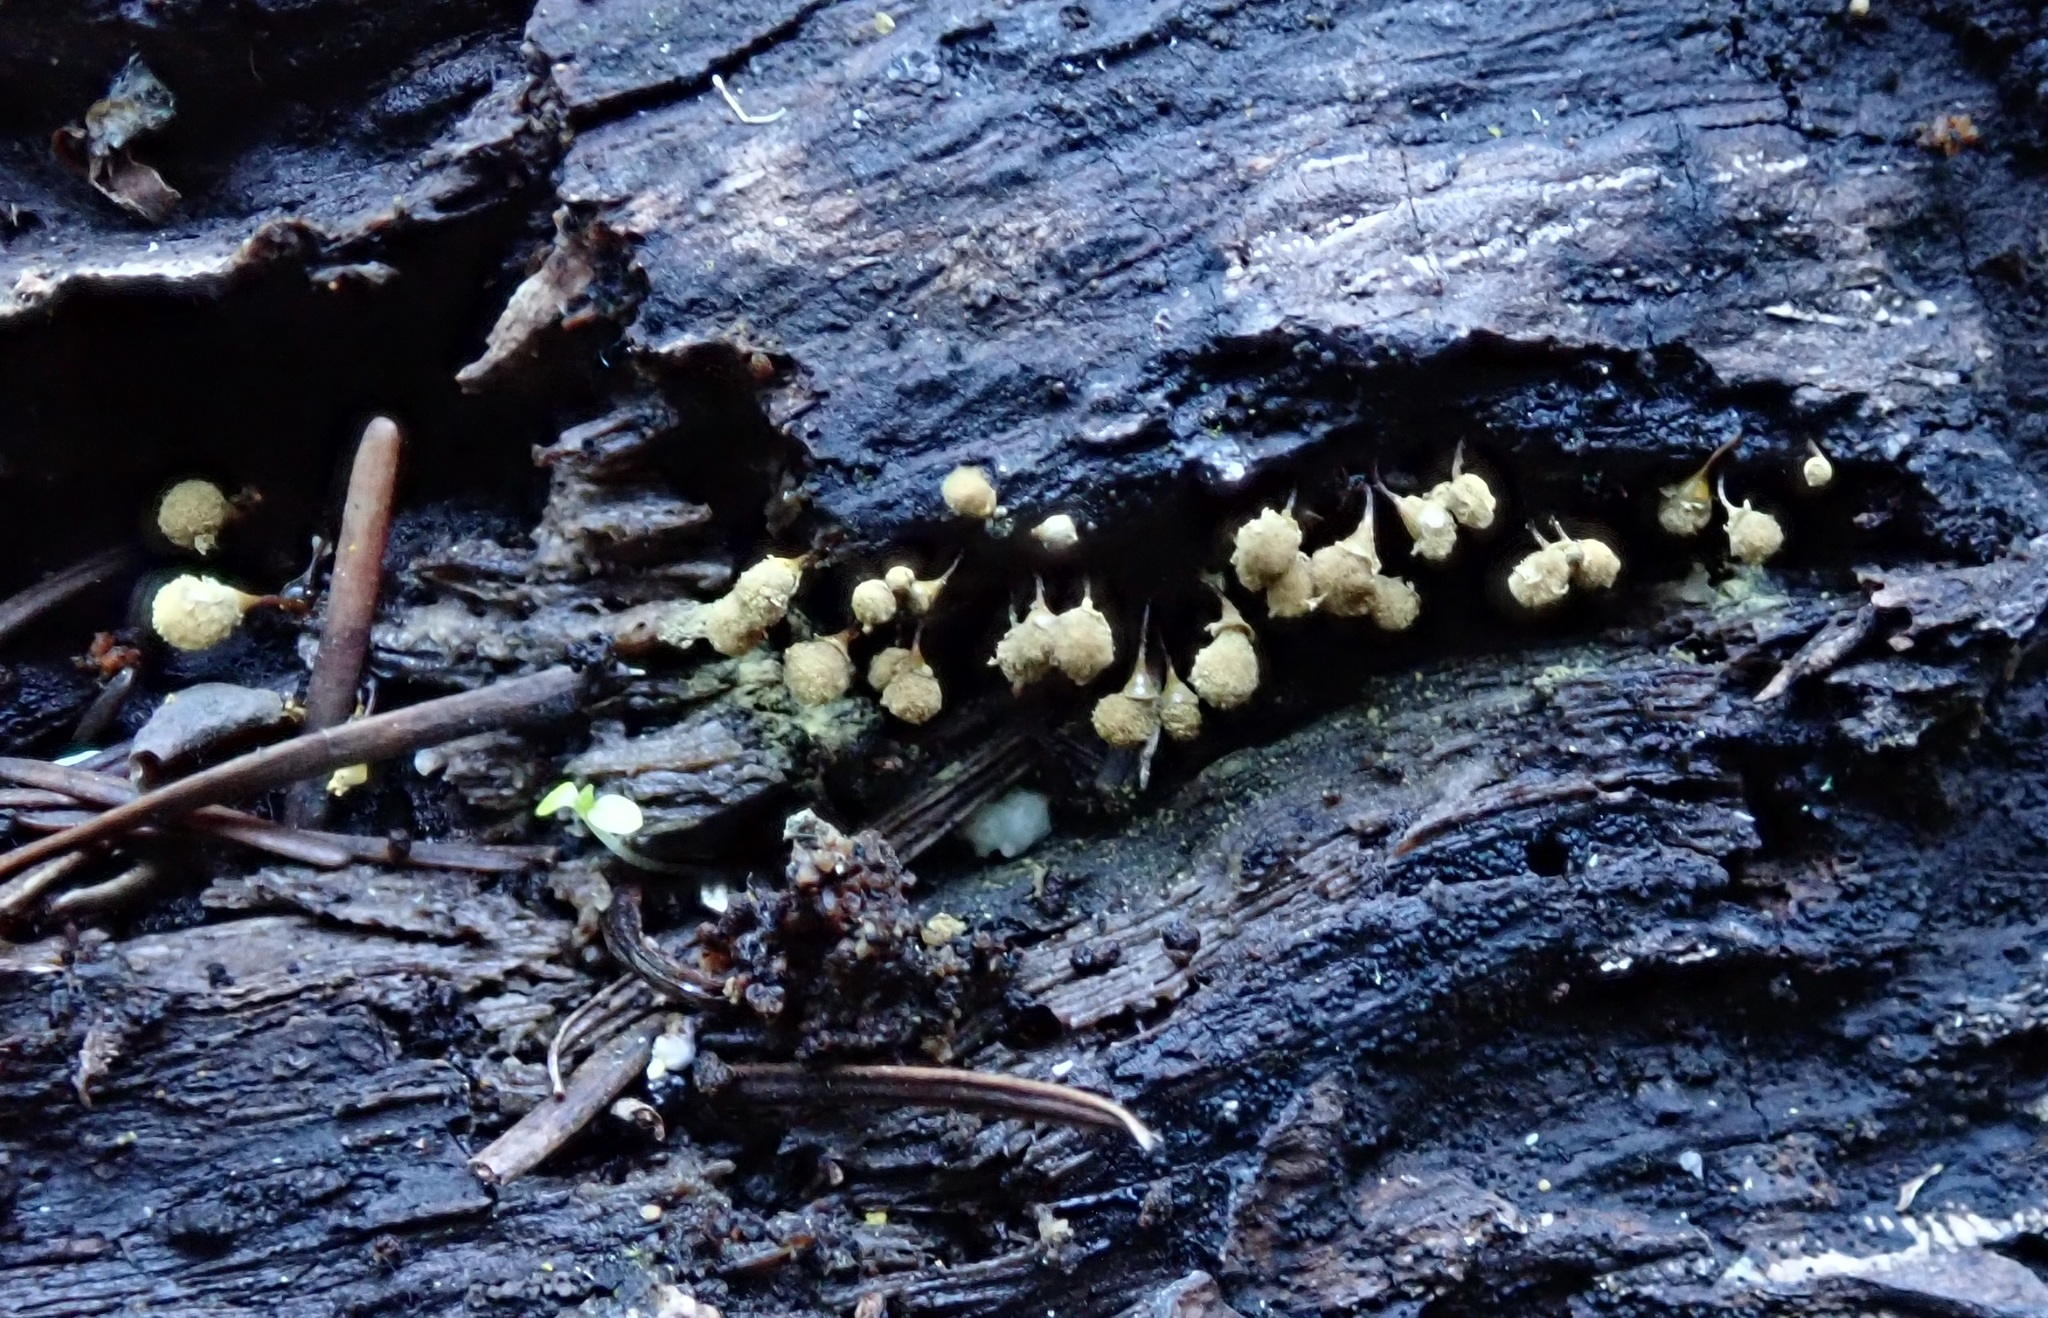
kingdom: Protozoa
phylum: Mycetozoa
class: Myxomycetes
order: Trichiales
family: Arcyriaceae
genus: Hemitrichia
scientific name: Hemitrichia calyculata
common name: Push pin slime mold
